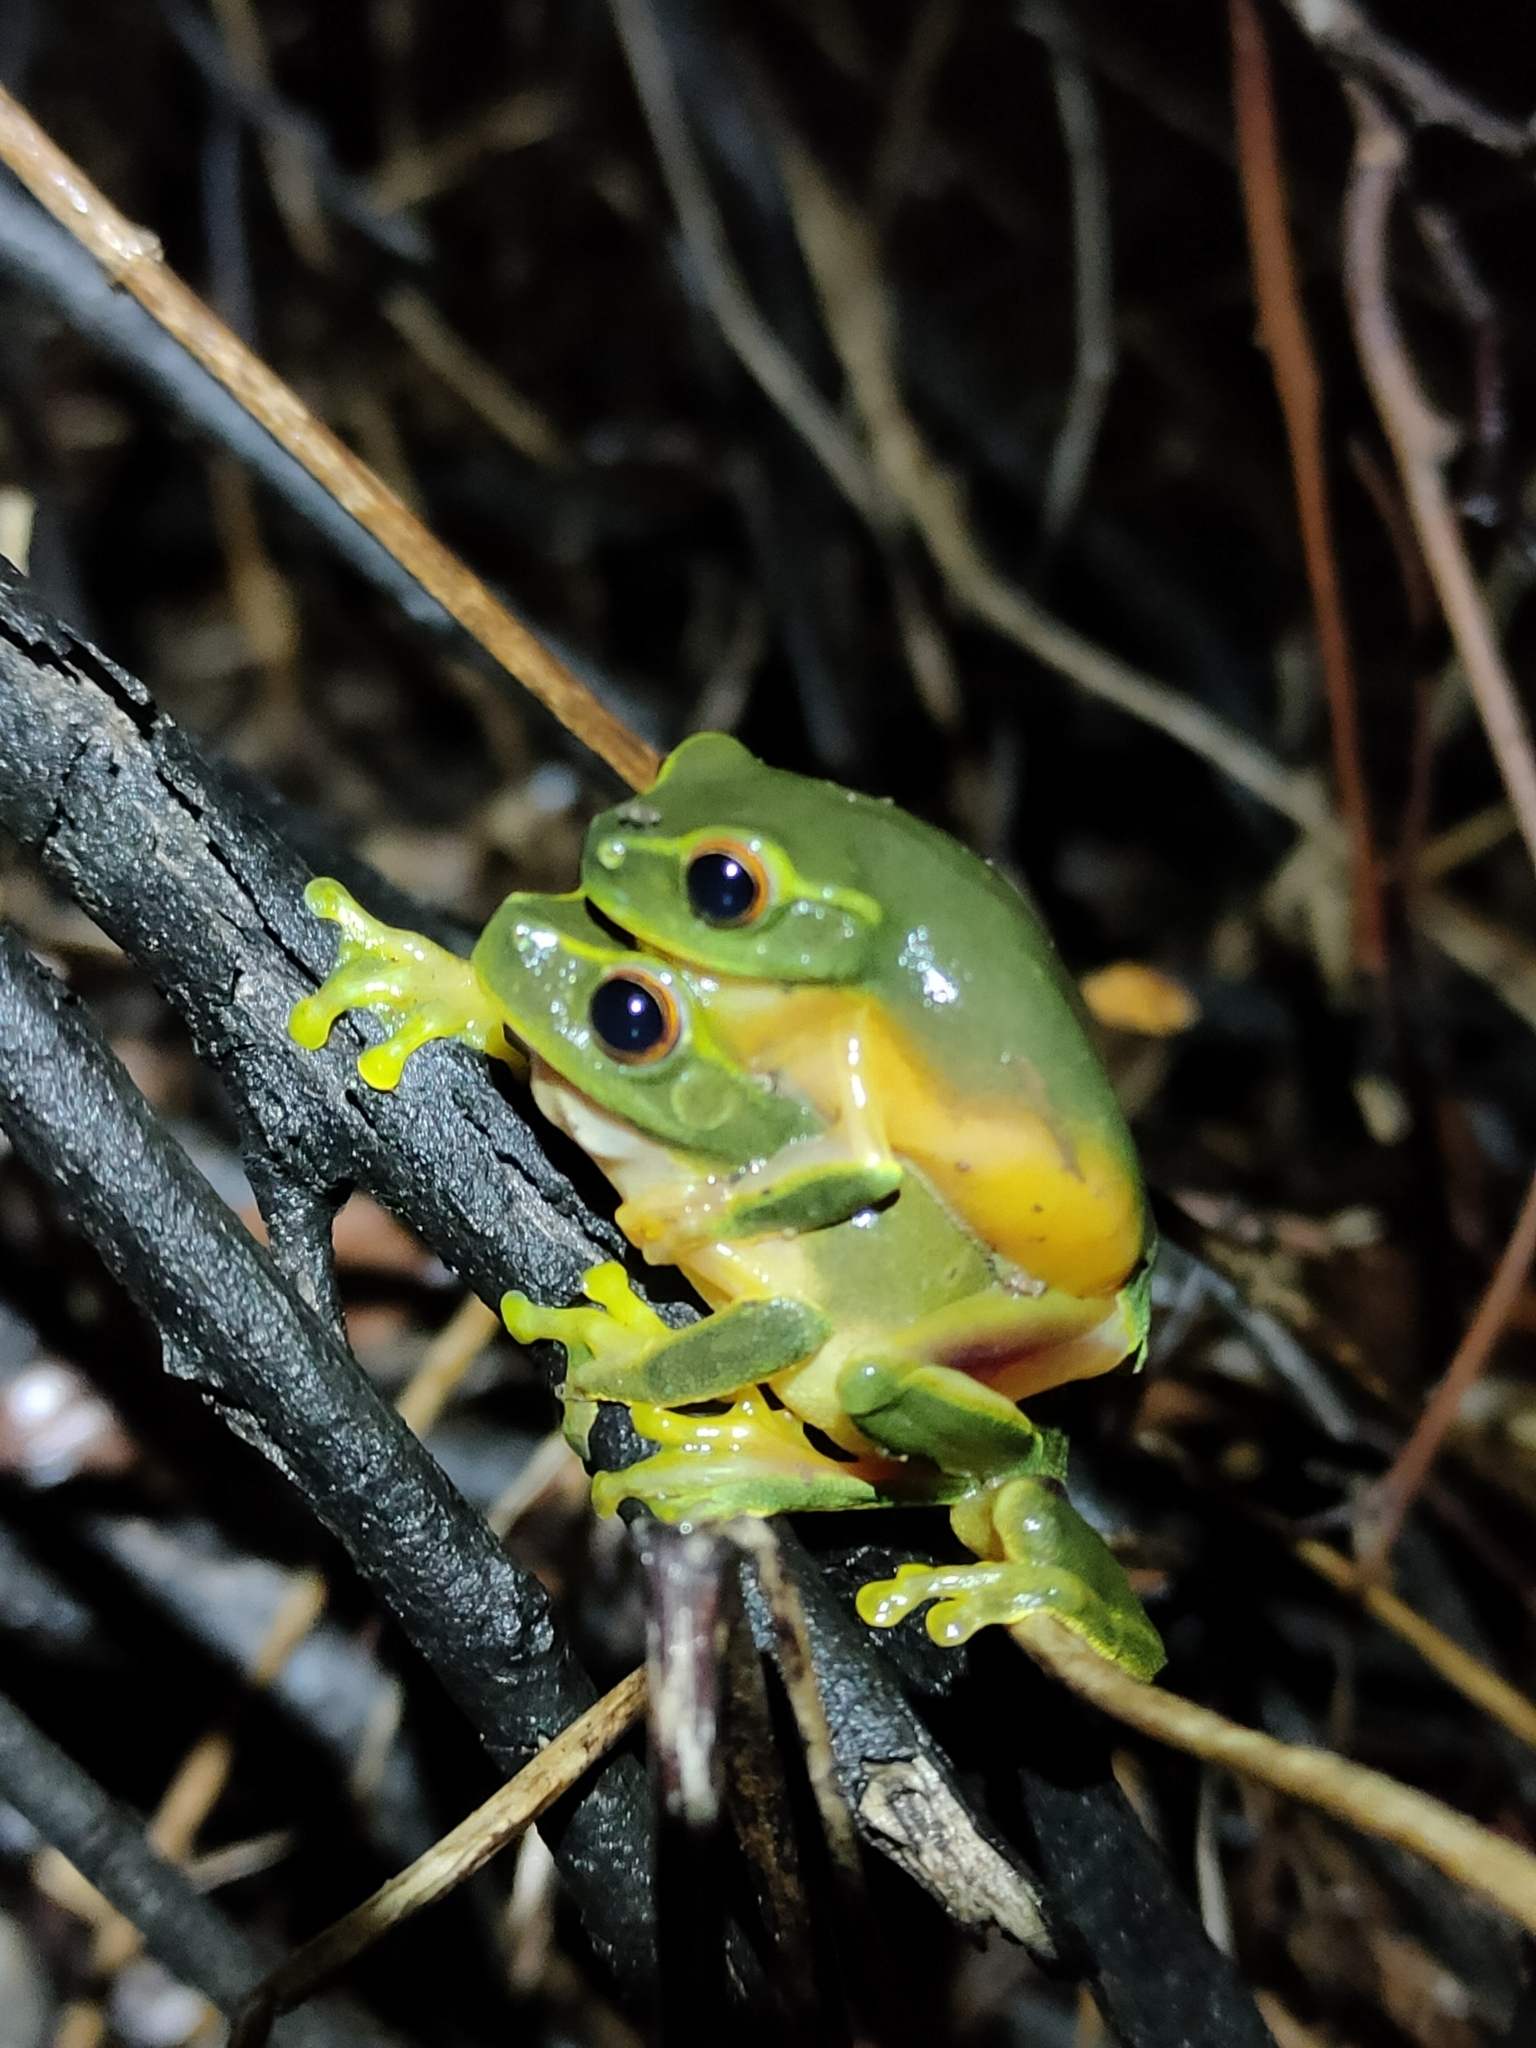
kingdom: Animalia
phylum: Chordata
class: Amphibia
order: Anura
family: Pelodryadidae
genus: Ranoidea
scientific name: Ranoidea gracilenta
